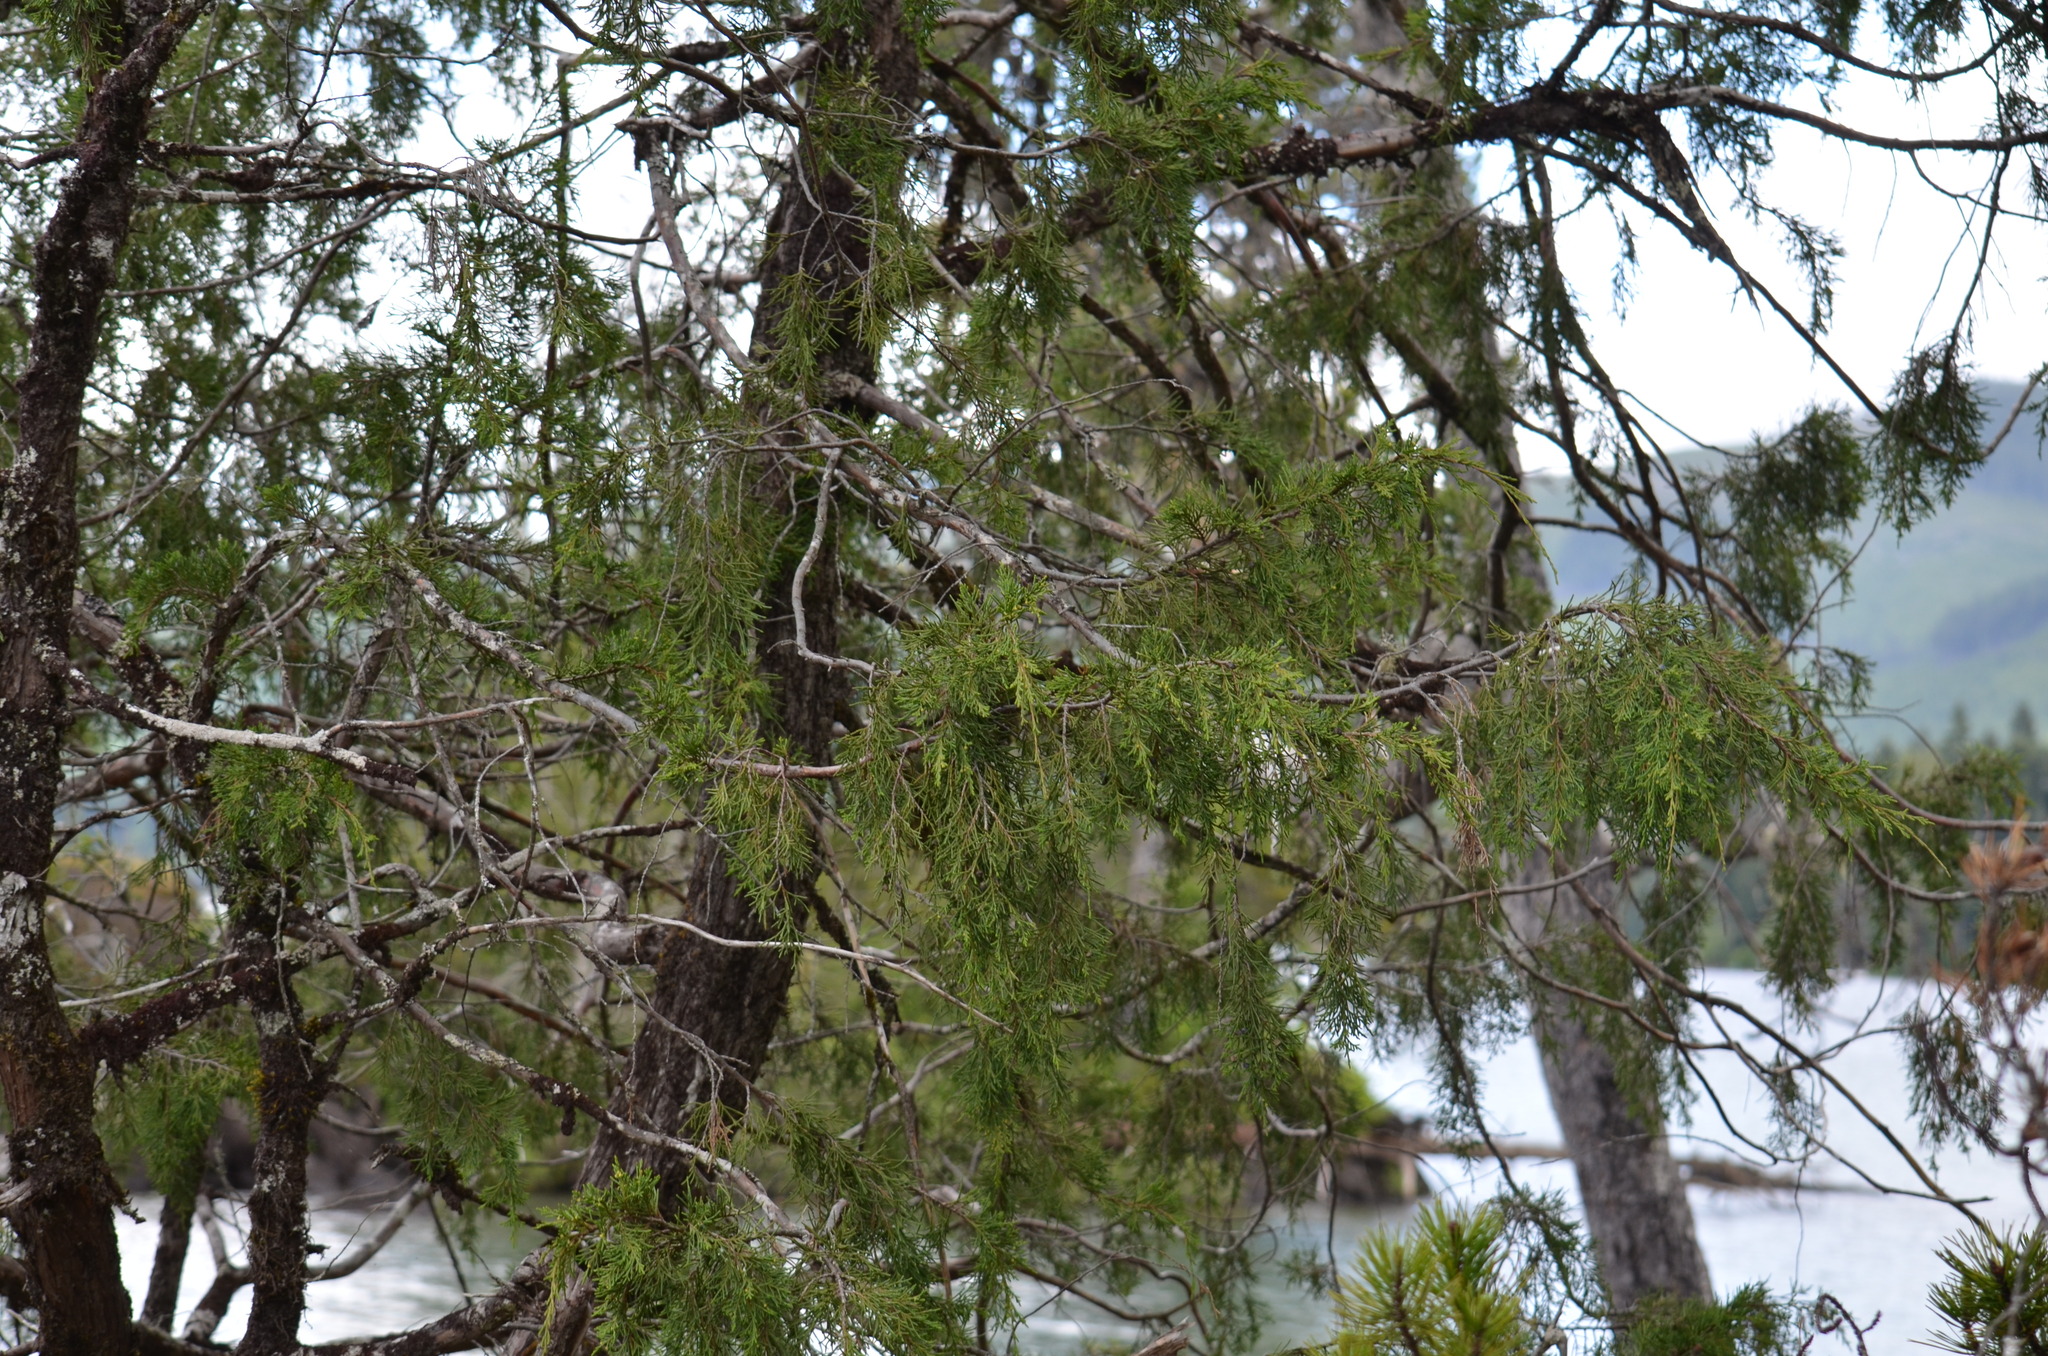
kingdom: Plantae
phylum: Tracheophyta
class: Pinopsida
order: Pinales
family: Cupressaceae
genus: Juniperus
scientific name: Juniperus scopulorum
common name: Rocky mountain juniper
